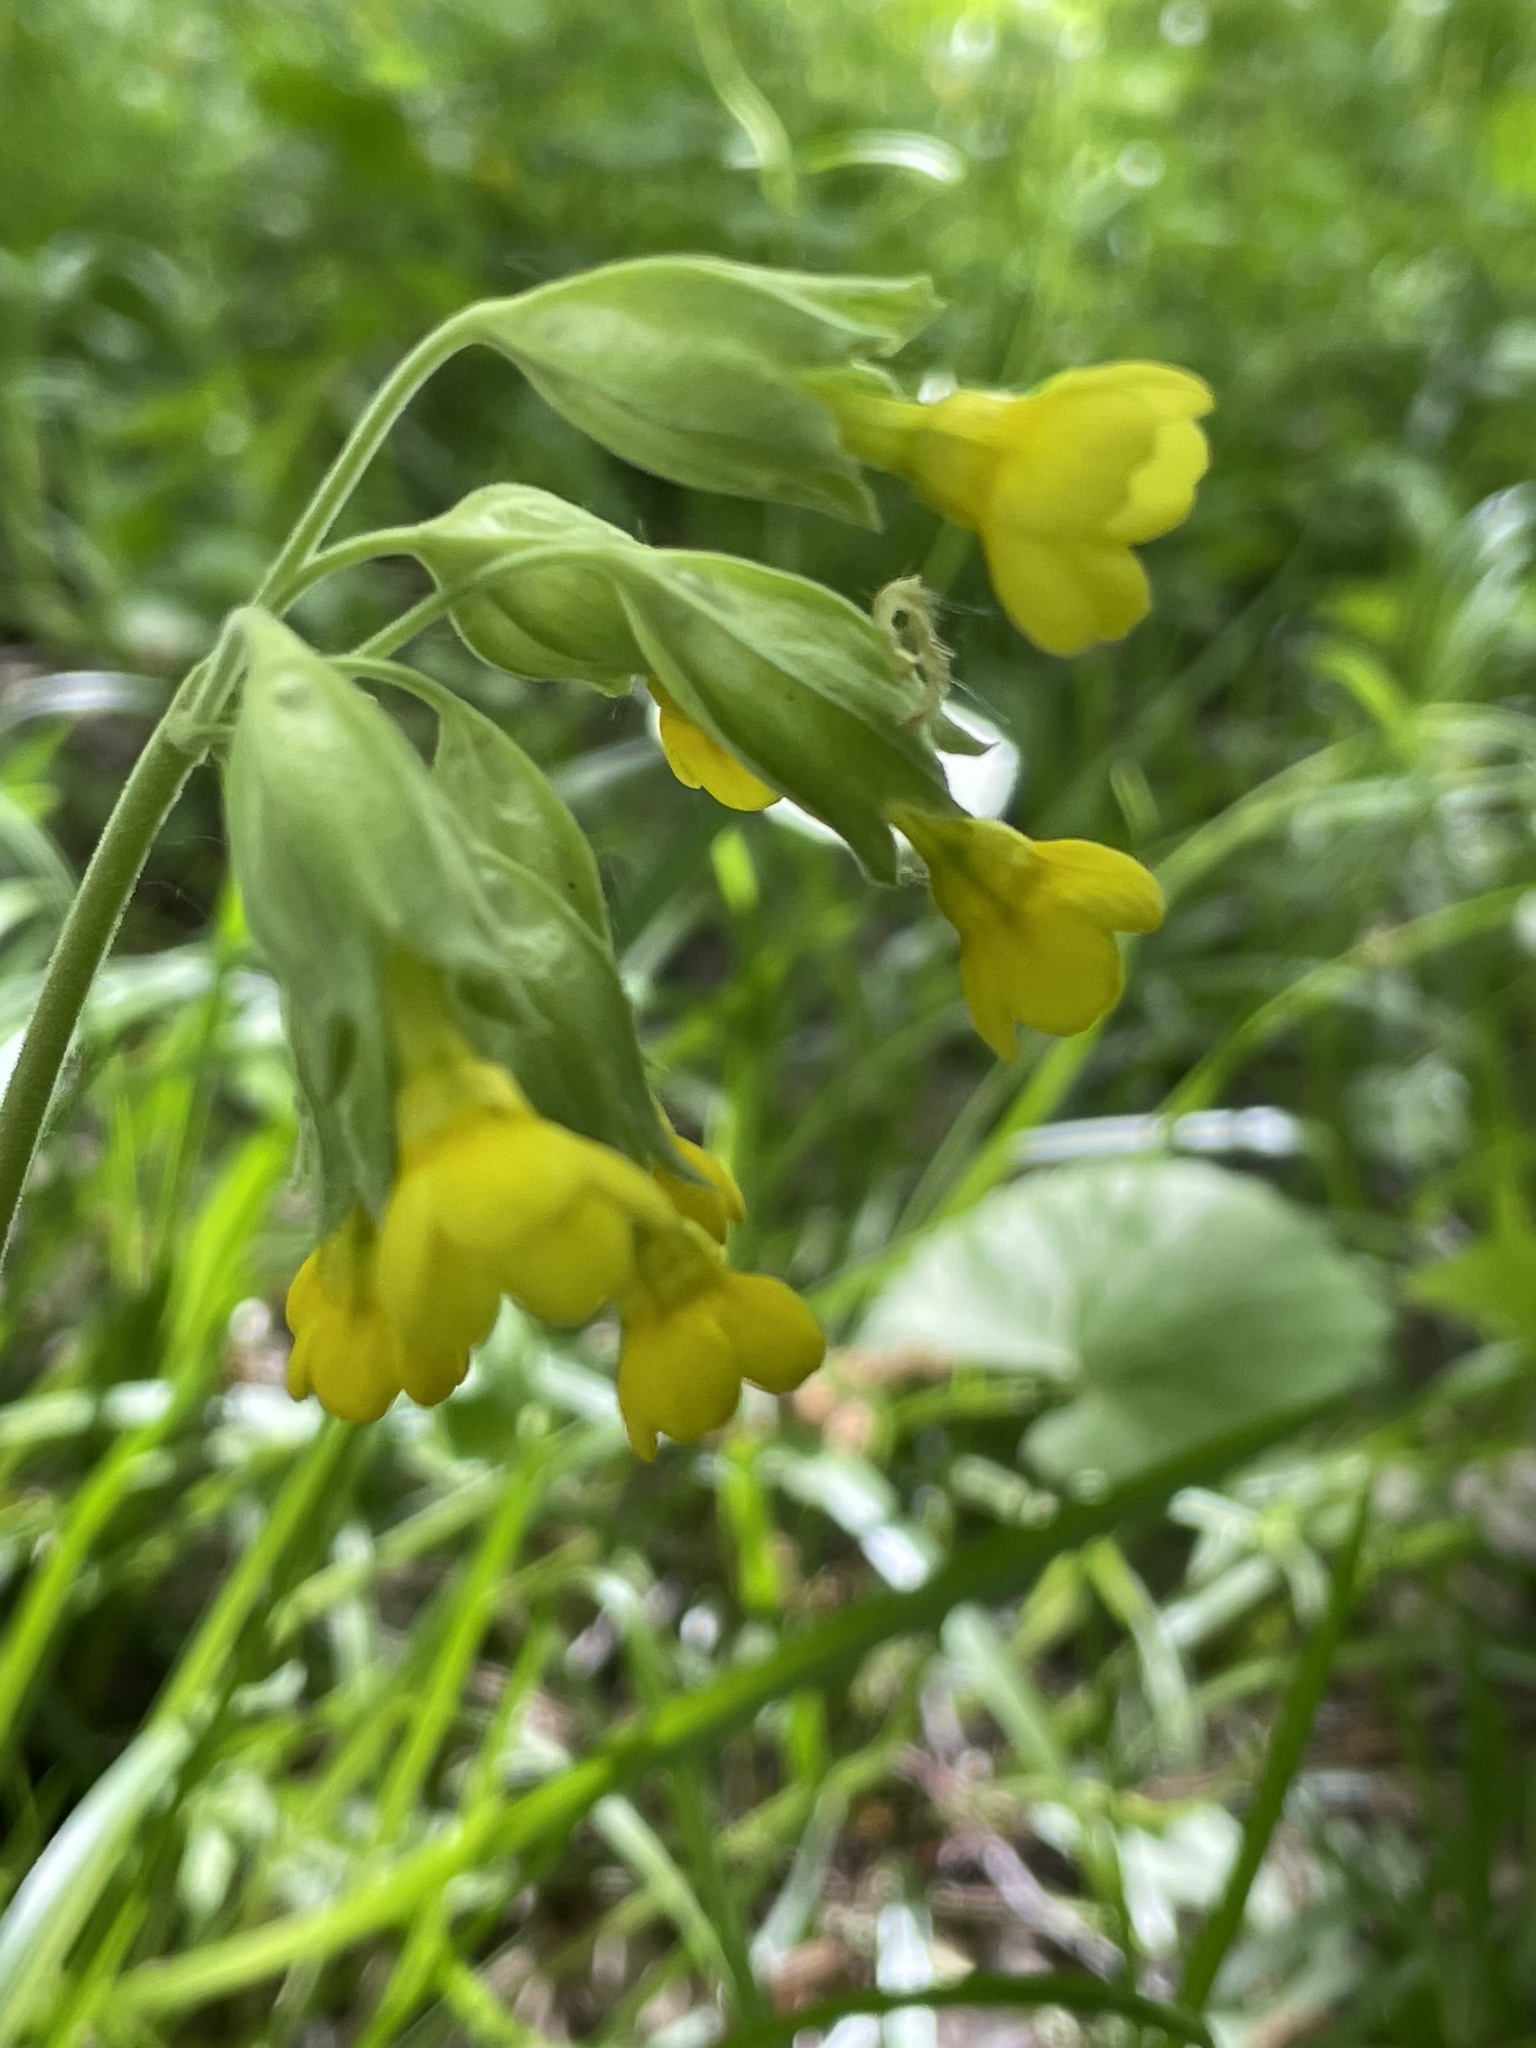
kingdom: Plantae
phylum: Tracheophyta
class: Magnoliopsida
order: Ericales
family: Primulaceae
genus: Primula
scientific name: Primula veris
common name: Cowslip
